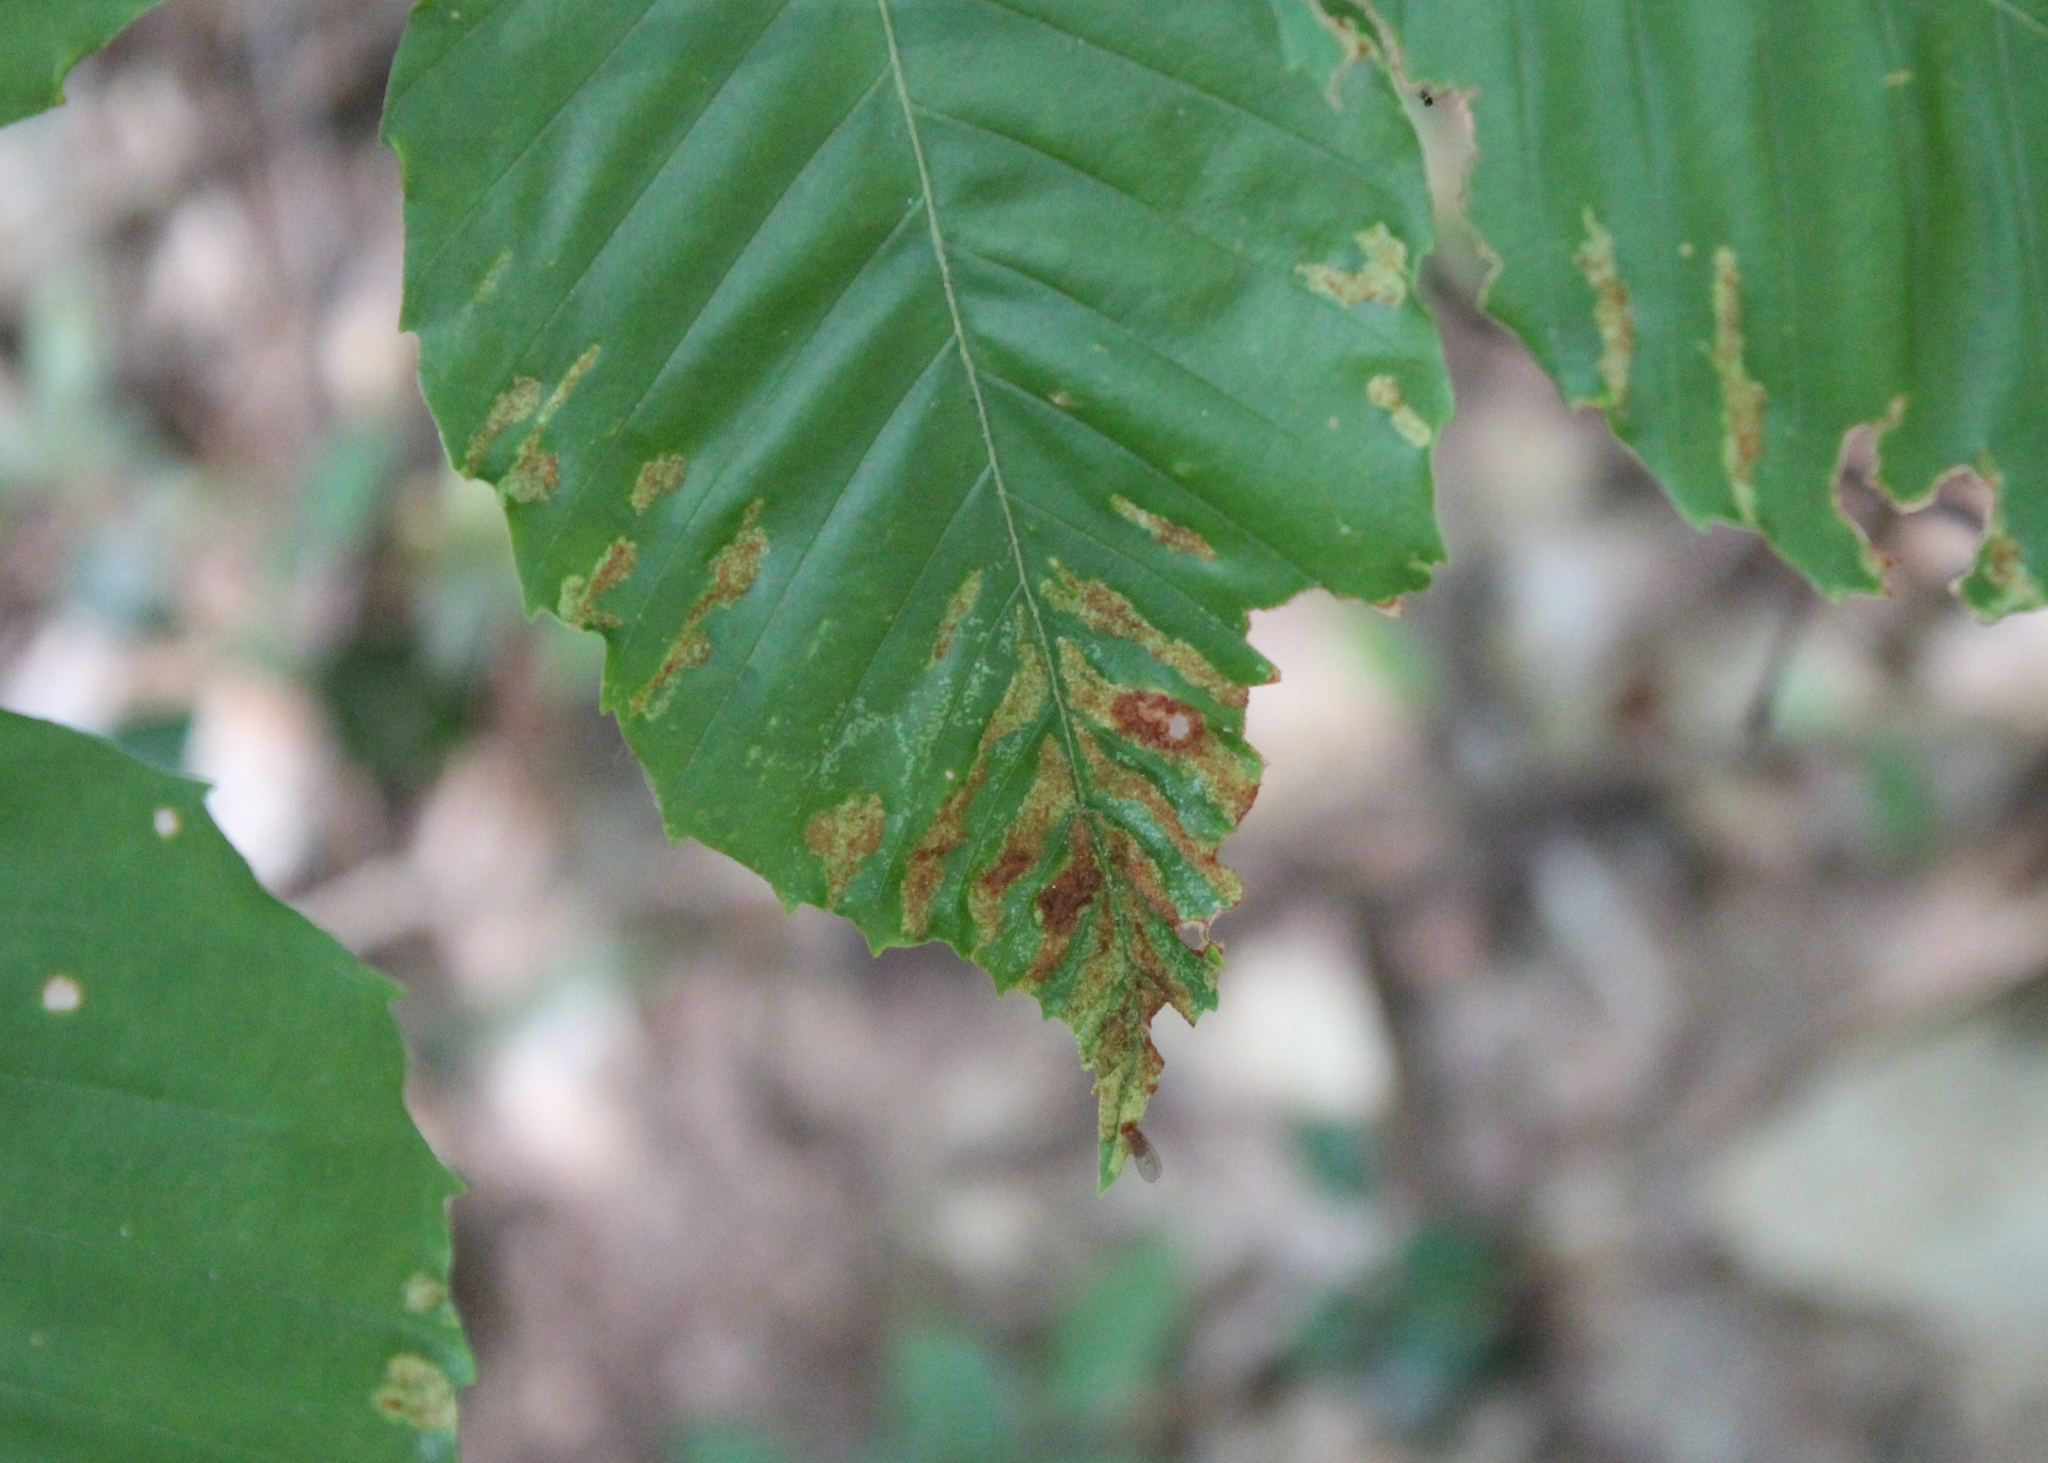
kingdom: Animalia
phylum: Arthropoda
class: Arachnida
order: Trombidiformes
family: Eriophyidae
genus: Acalitus
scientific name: Acalitus
